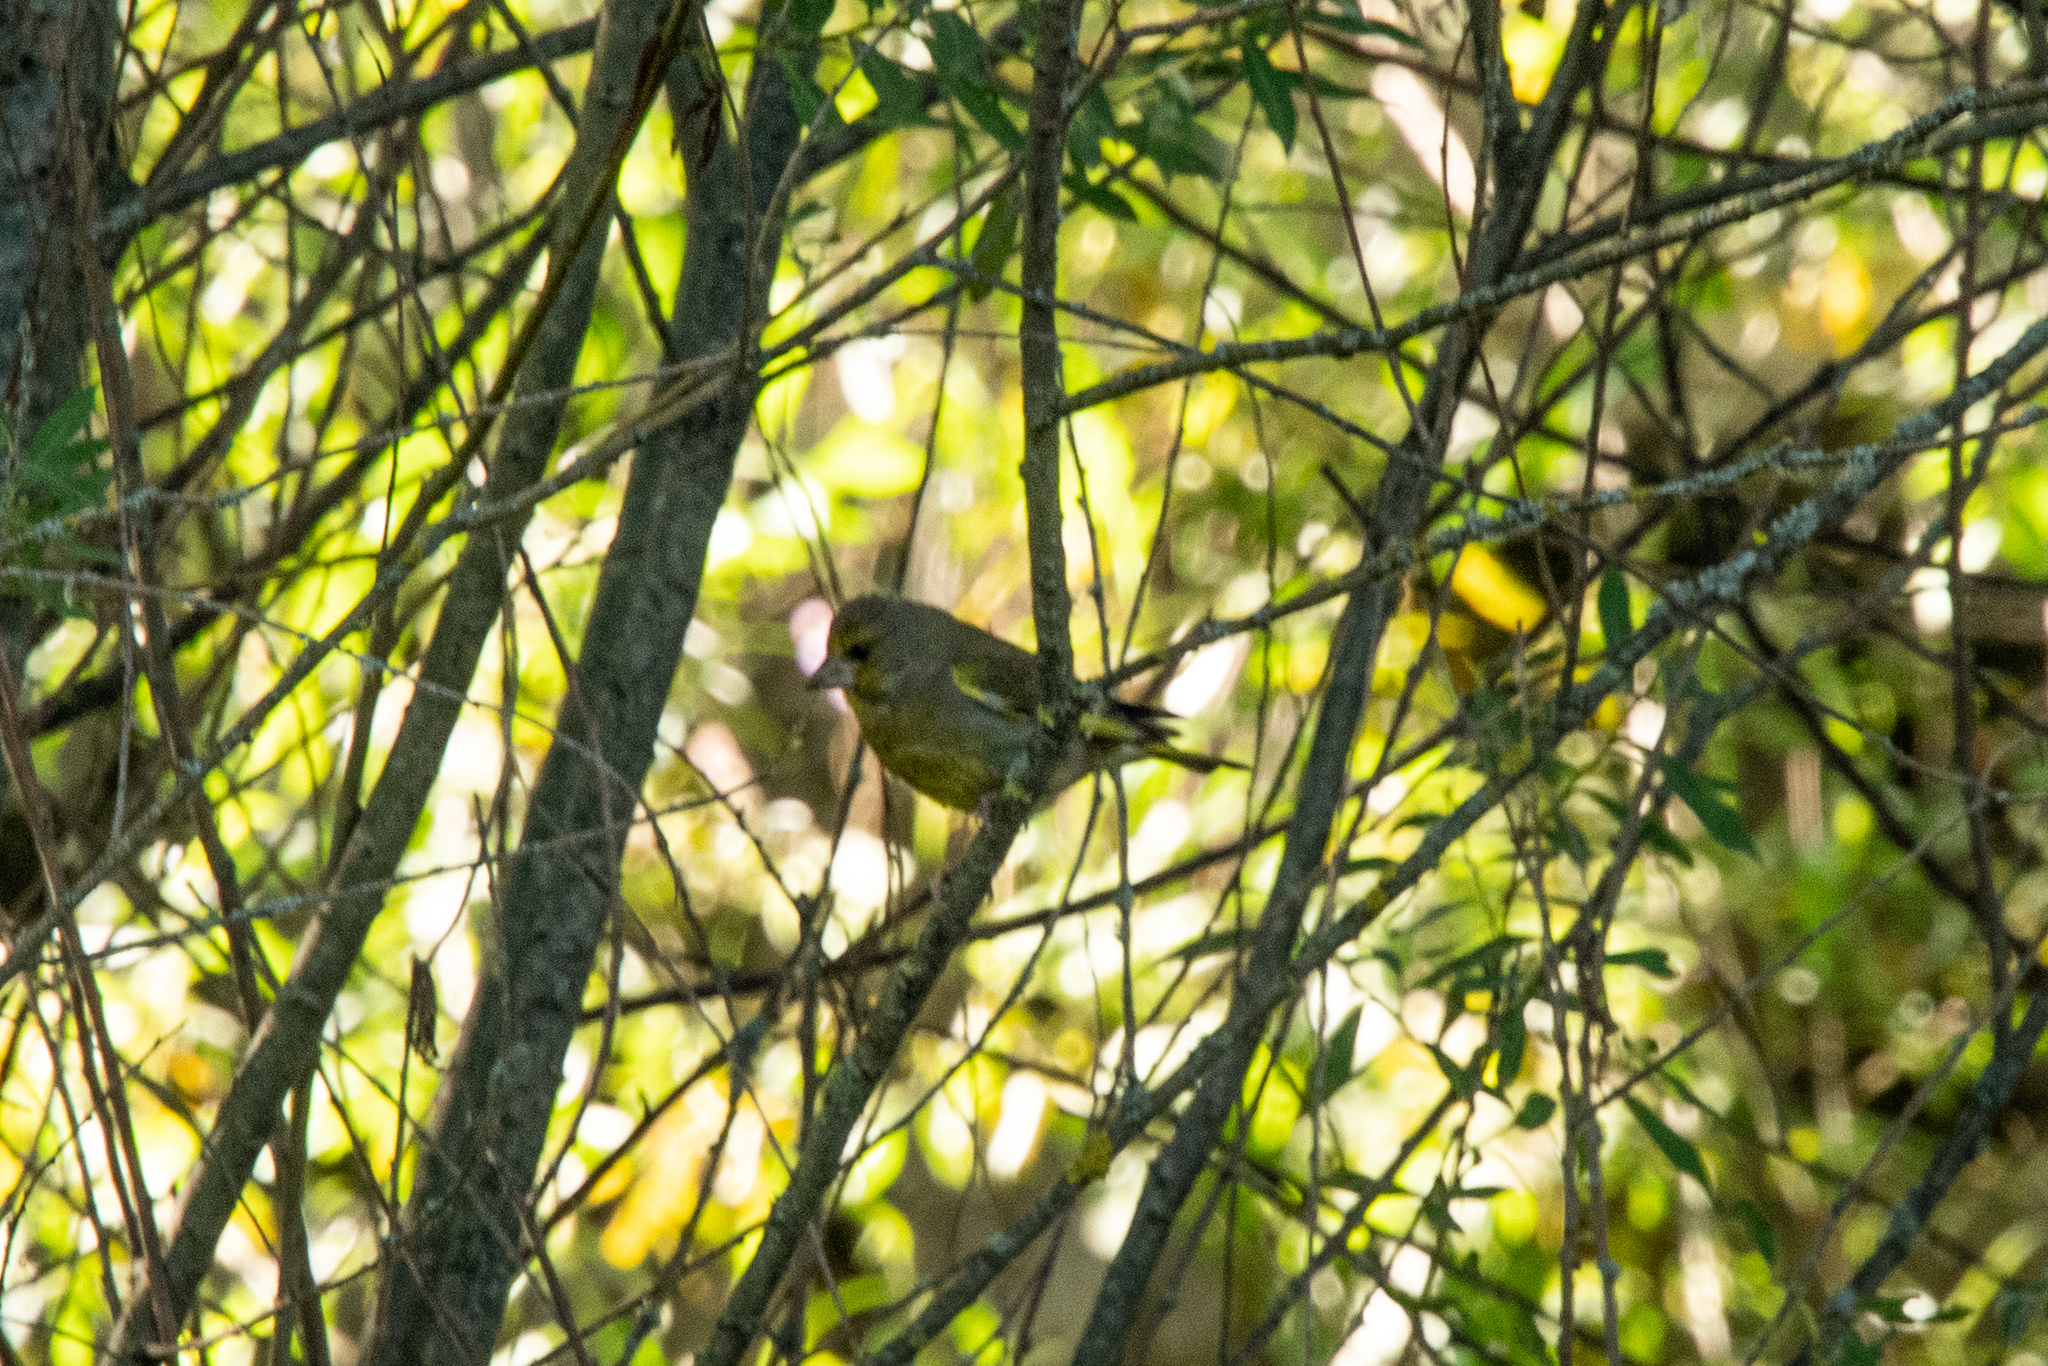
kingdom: Plantae
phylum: Tracheophyta
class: Liliopsida
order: Poales
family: Poaceae
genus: Chloris
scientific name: Chloris chloris
